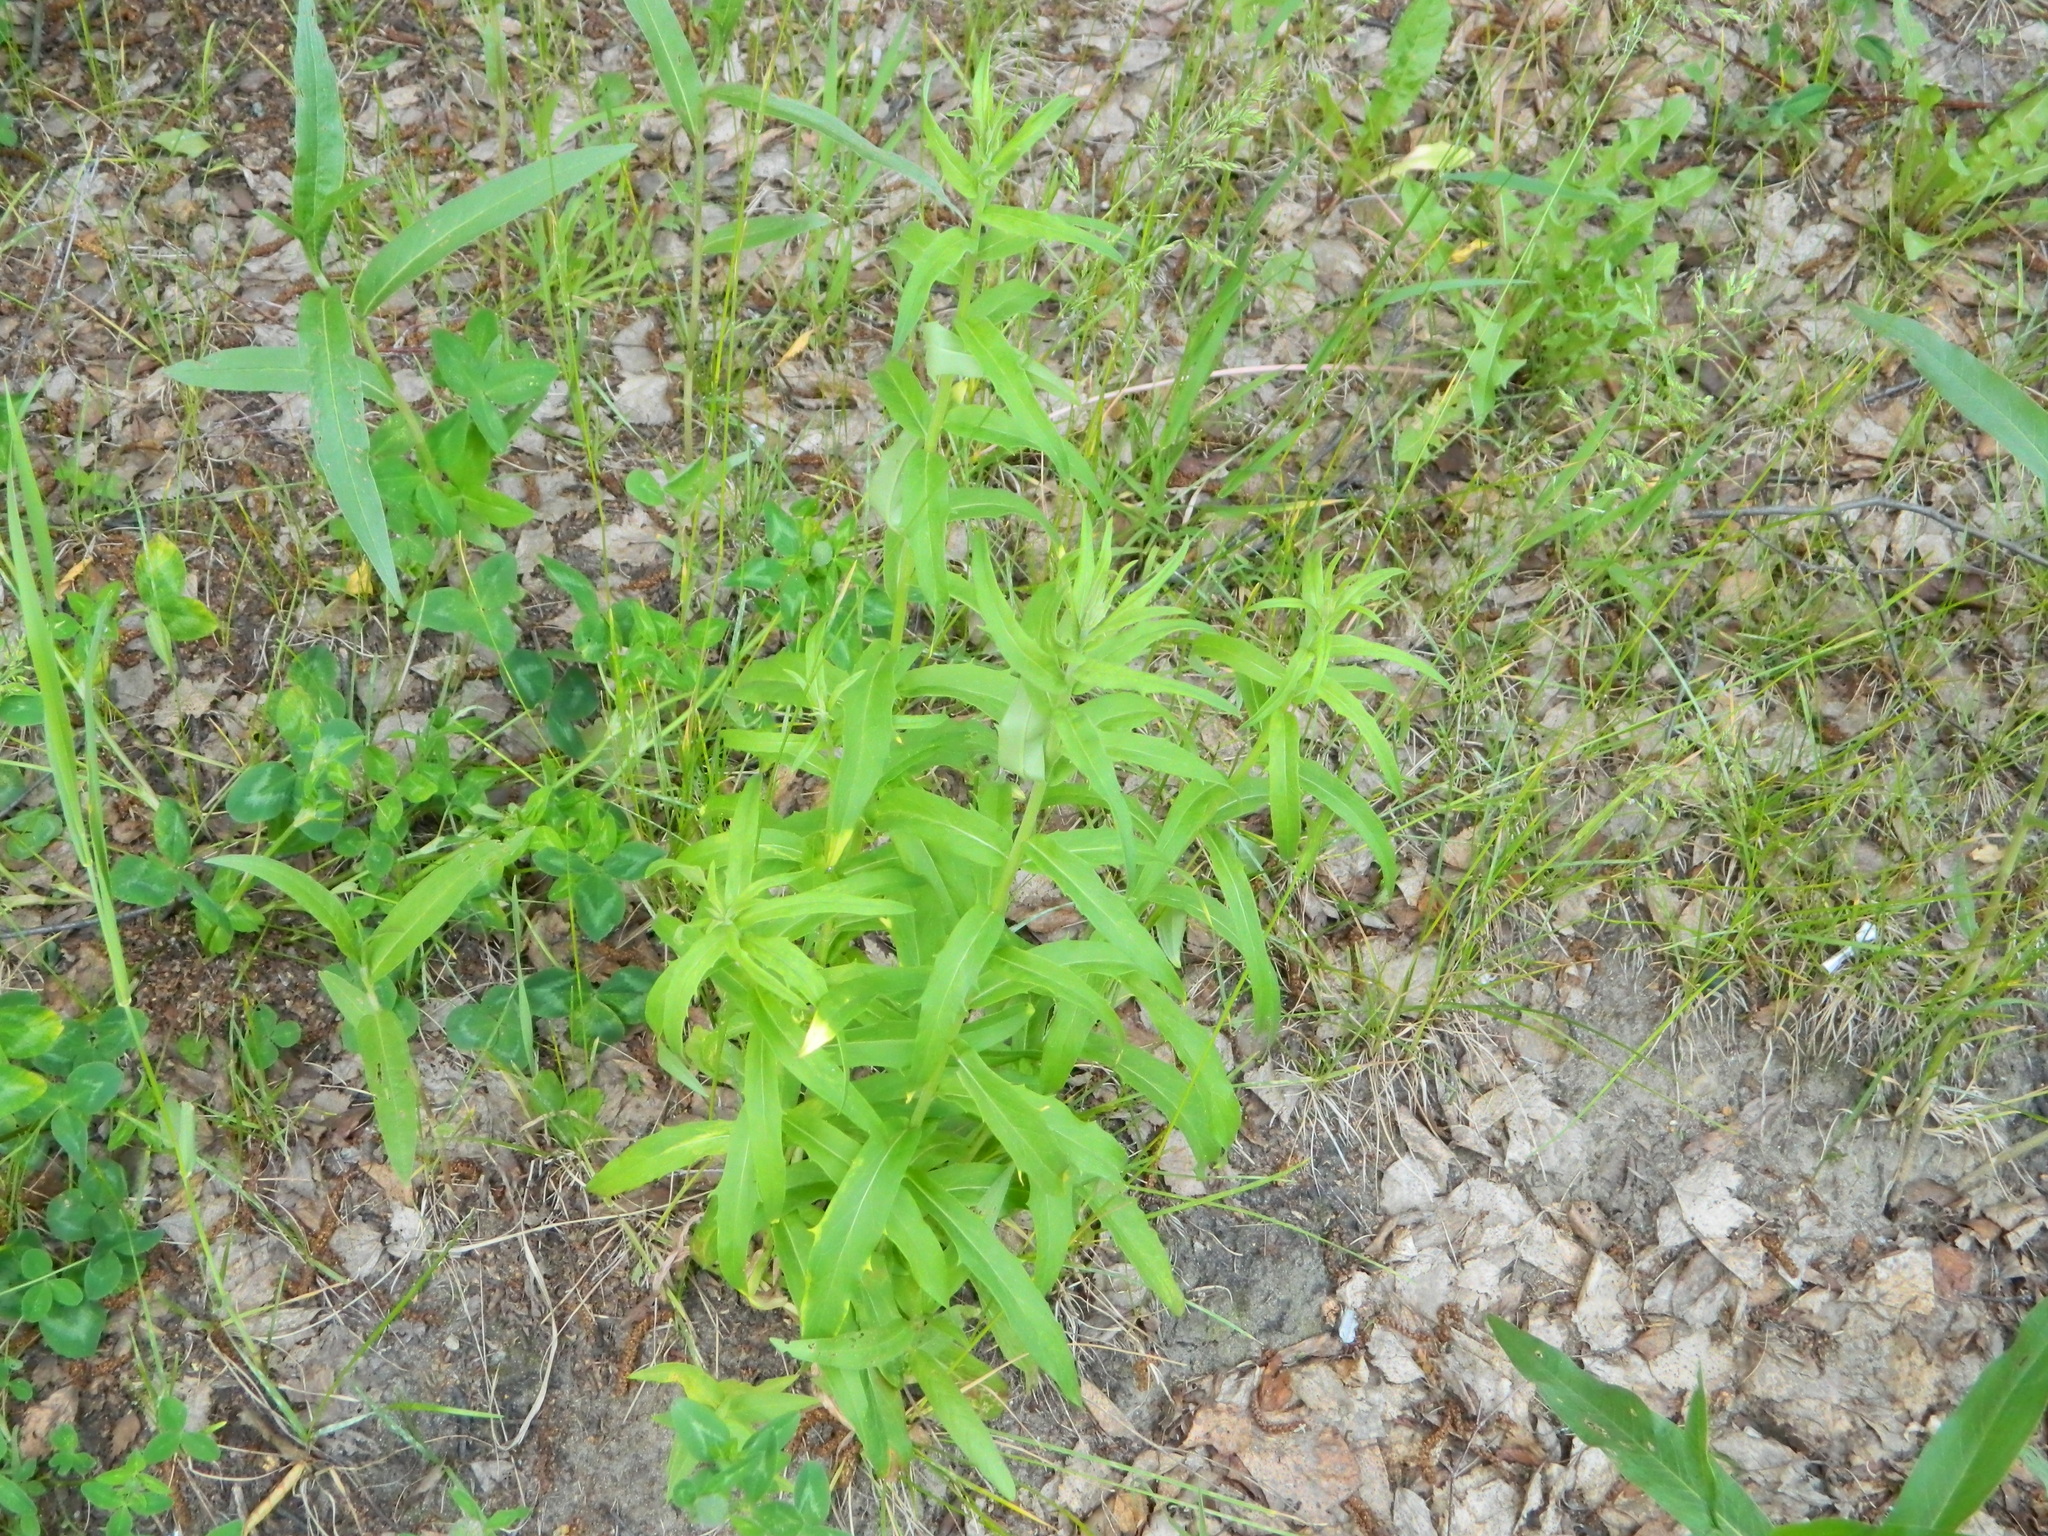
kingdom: Plantae
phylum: Tracheophyta
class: Magnoliopsida
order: Asterales
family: Asteraceae
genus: Hieracium
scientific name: Hieracium umbellatum
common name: Northern hawkweed
